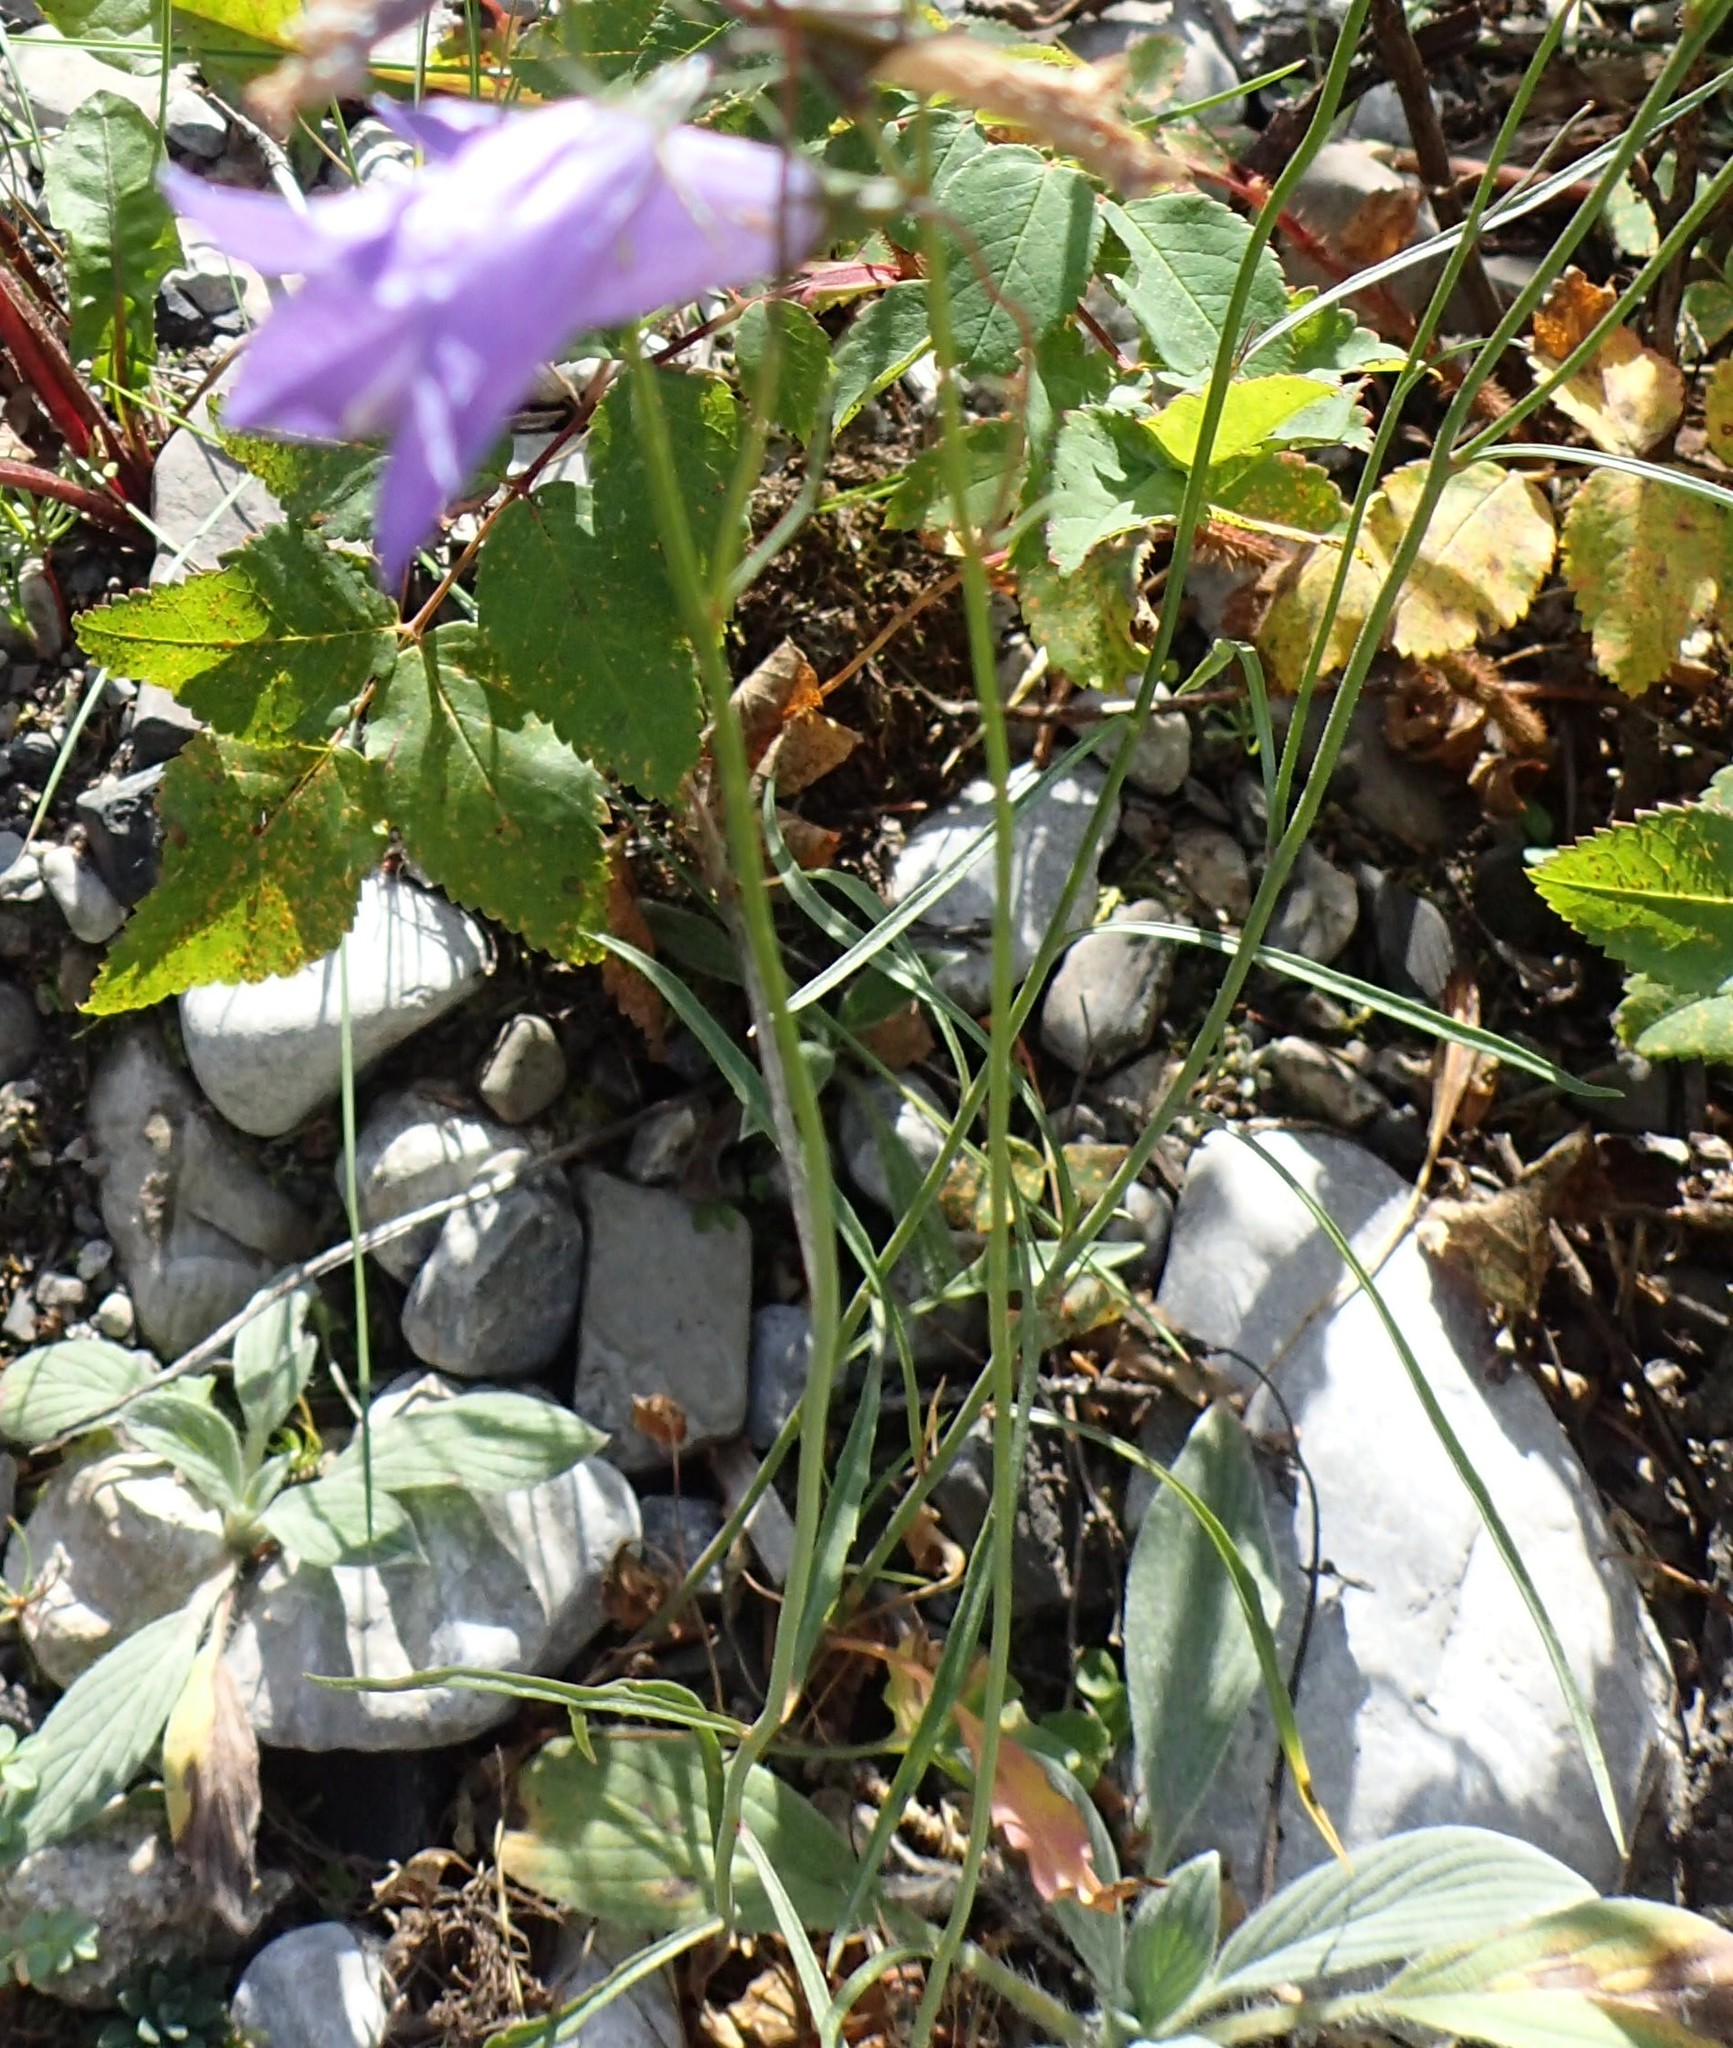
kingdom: Plantae
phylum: Tracheophyta
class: Magnoliopsida
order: Asterales
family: Campanulaceae
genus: Campanula
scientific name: Campanula alaskana
